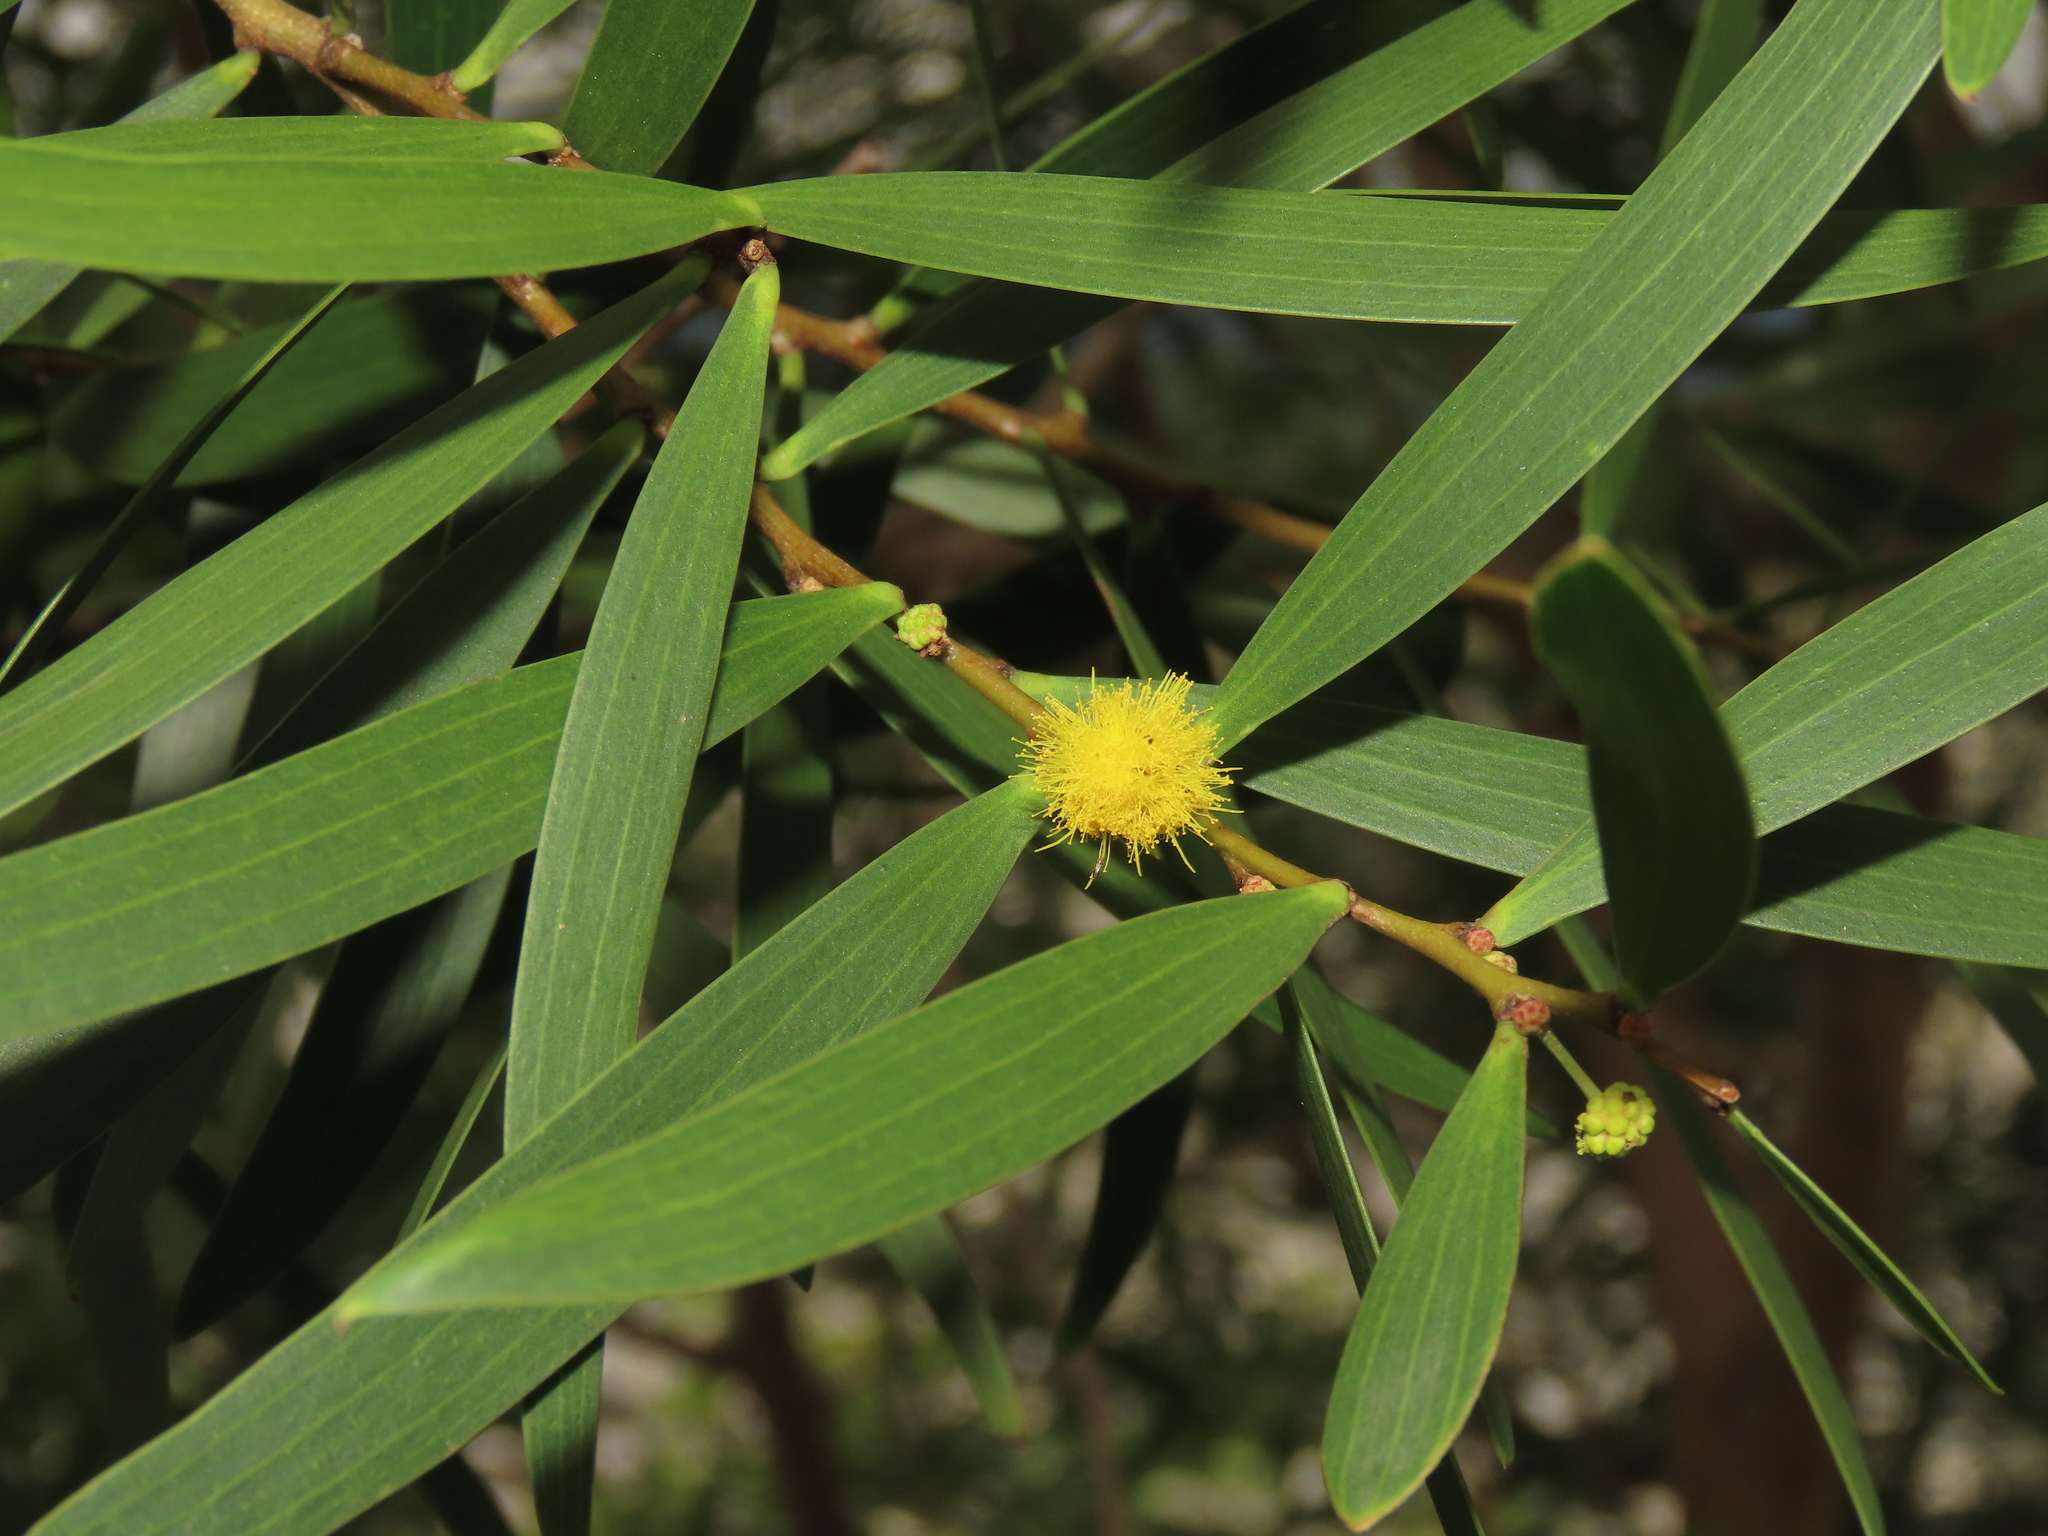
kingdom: Plantae
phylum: Tracheophyta
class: Magnoliopsida
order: Fabales
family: Fabaceae
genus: Acacia
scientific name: Acacia confusa
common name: Formosan koa
